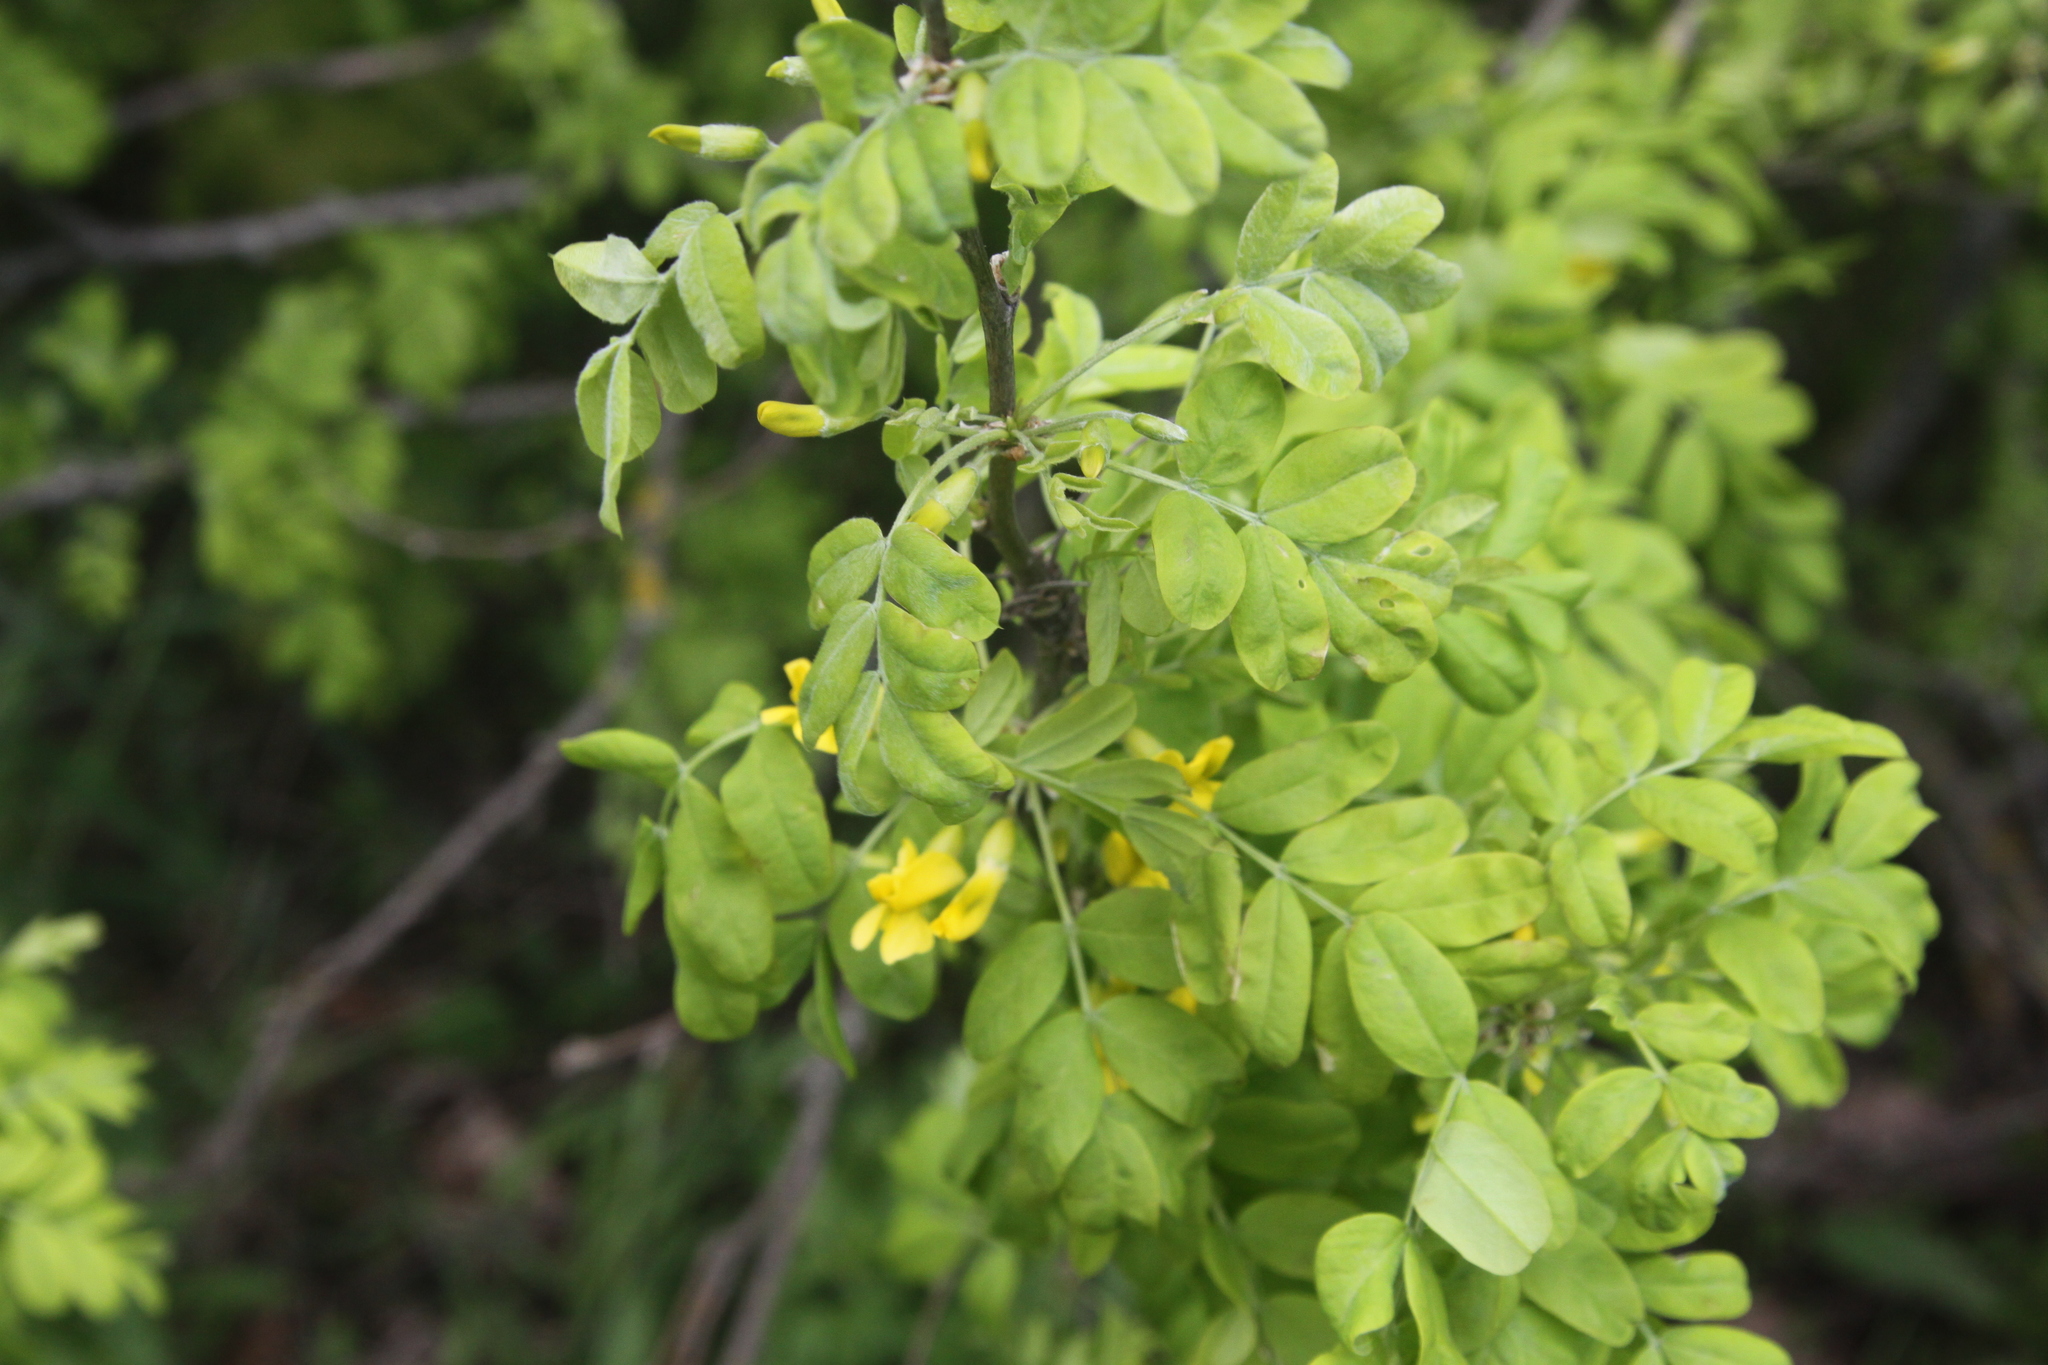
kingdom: Plantae
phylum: Tracheophyta
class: Magnoliopsida
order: Fabales
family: Fabaceae
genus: Caragana
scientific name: Caragana arborescens
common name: Siberian peashrub
